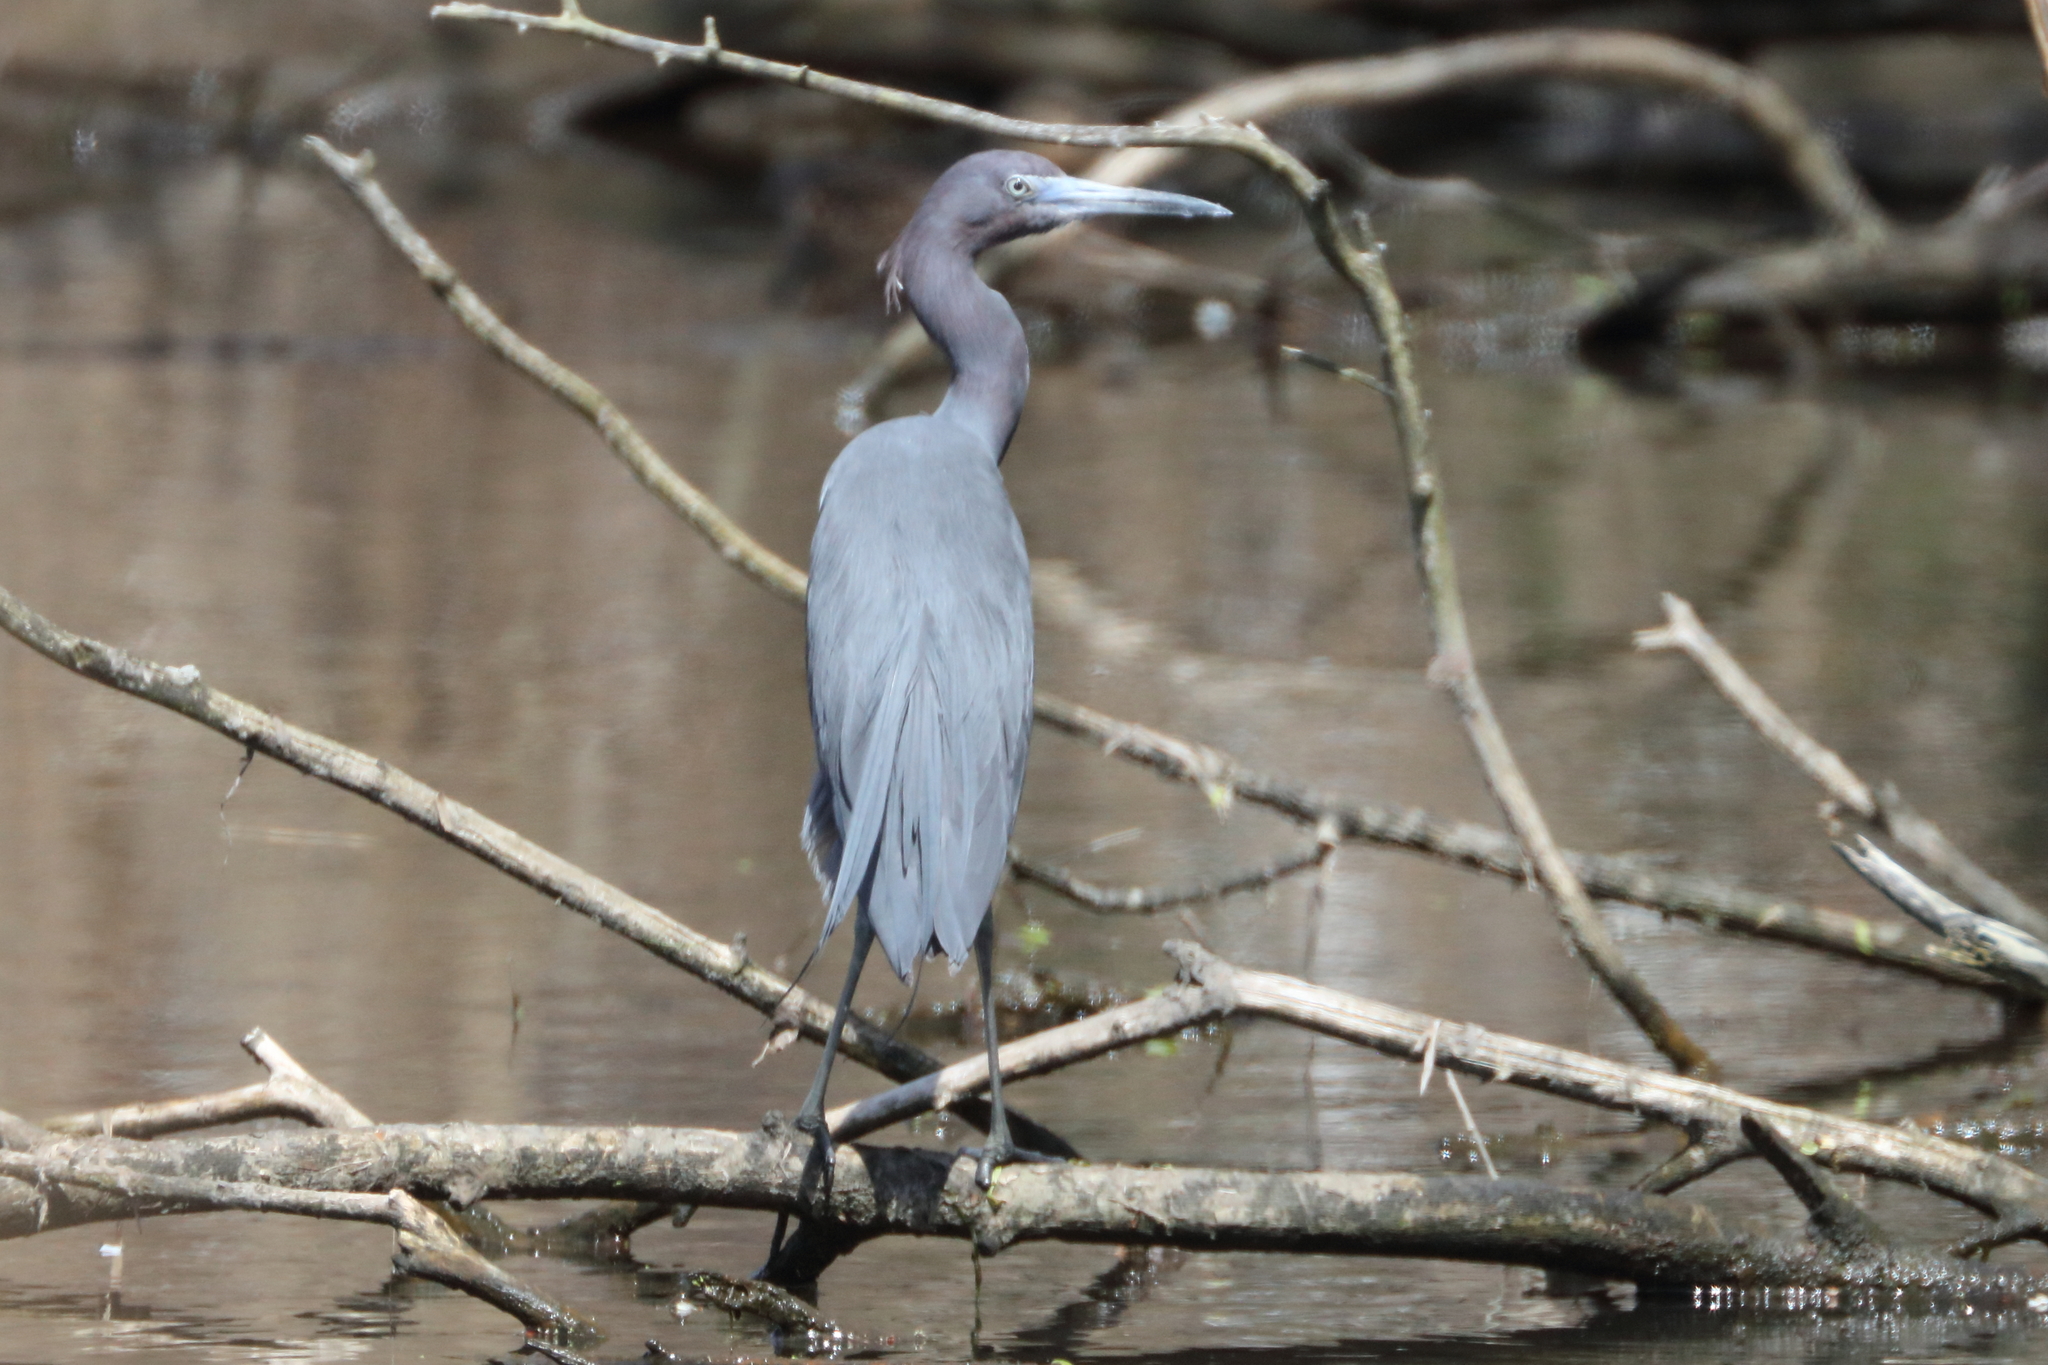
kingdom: Animalia
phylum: Chordata
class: Aves
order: Pelecaniformes
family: Ardeidae
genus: Egretta
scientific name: Egretta caerulea
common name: Little blue heron
